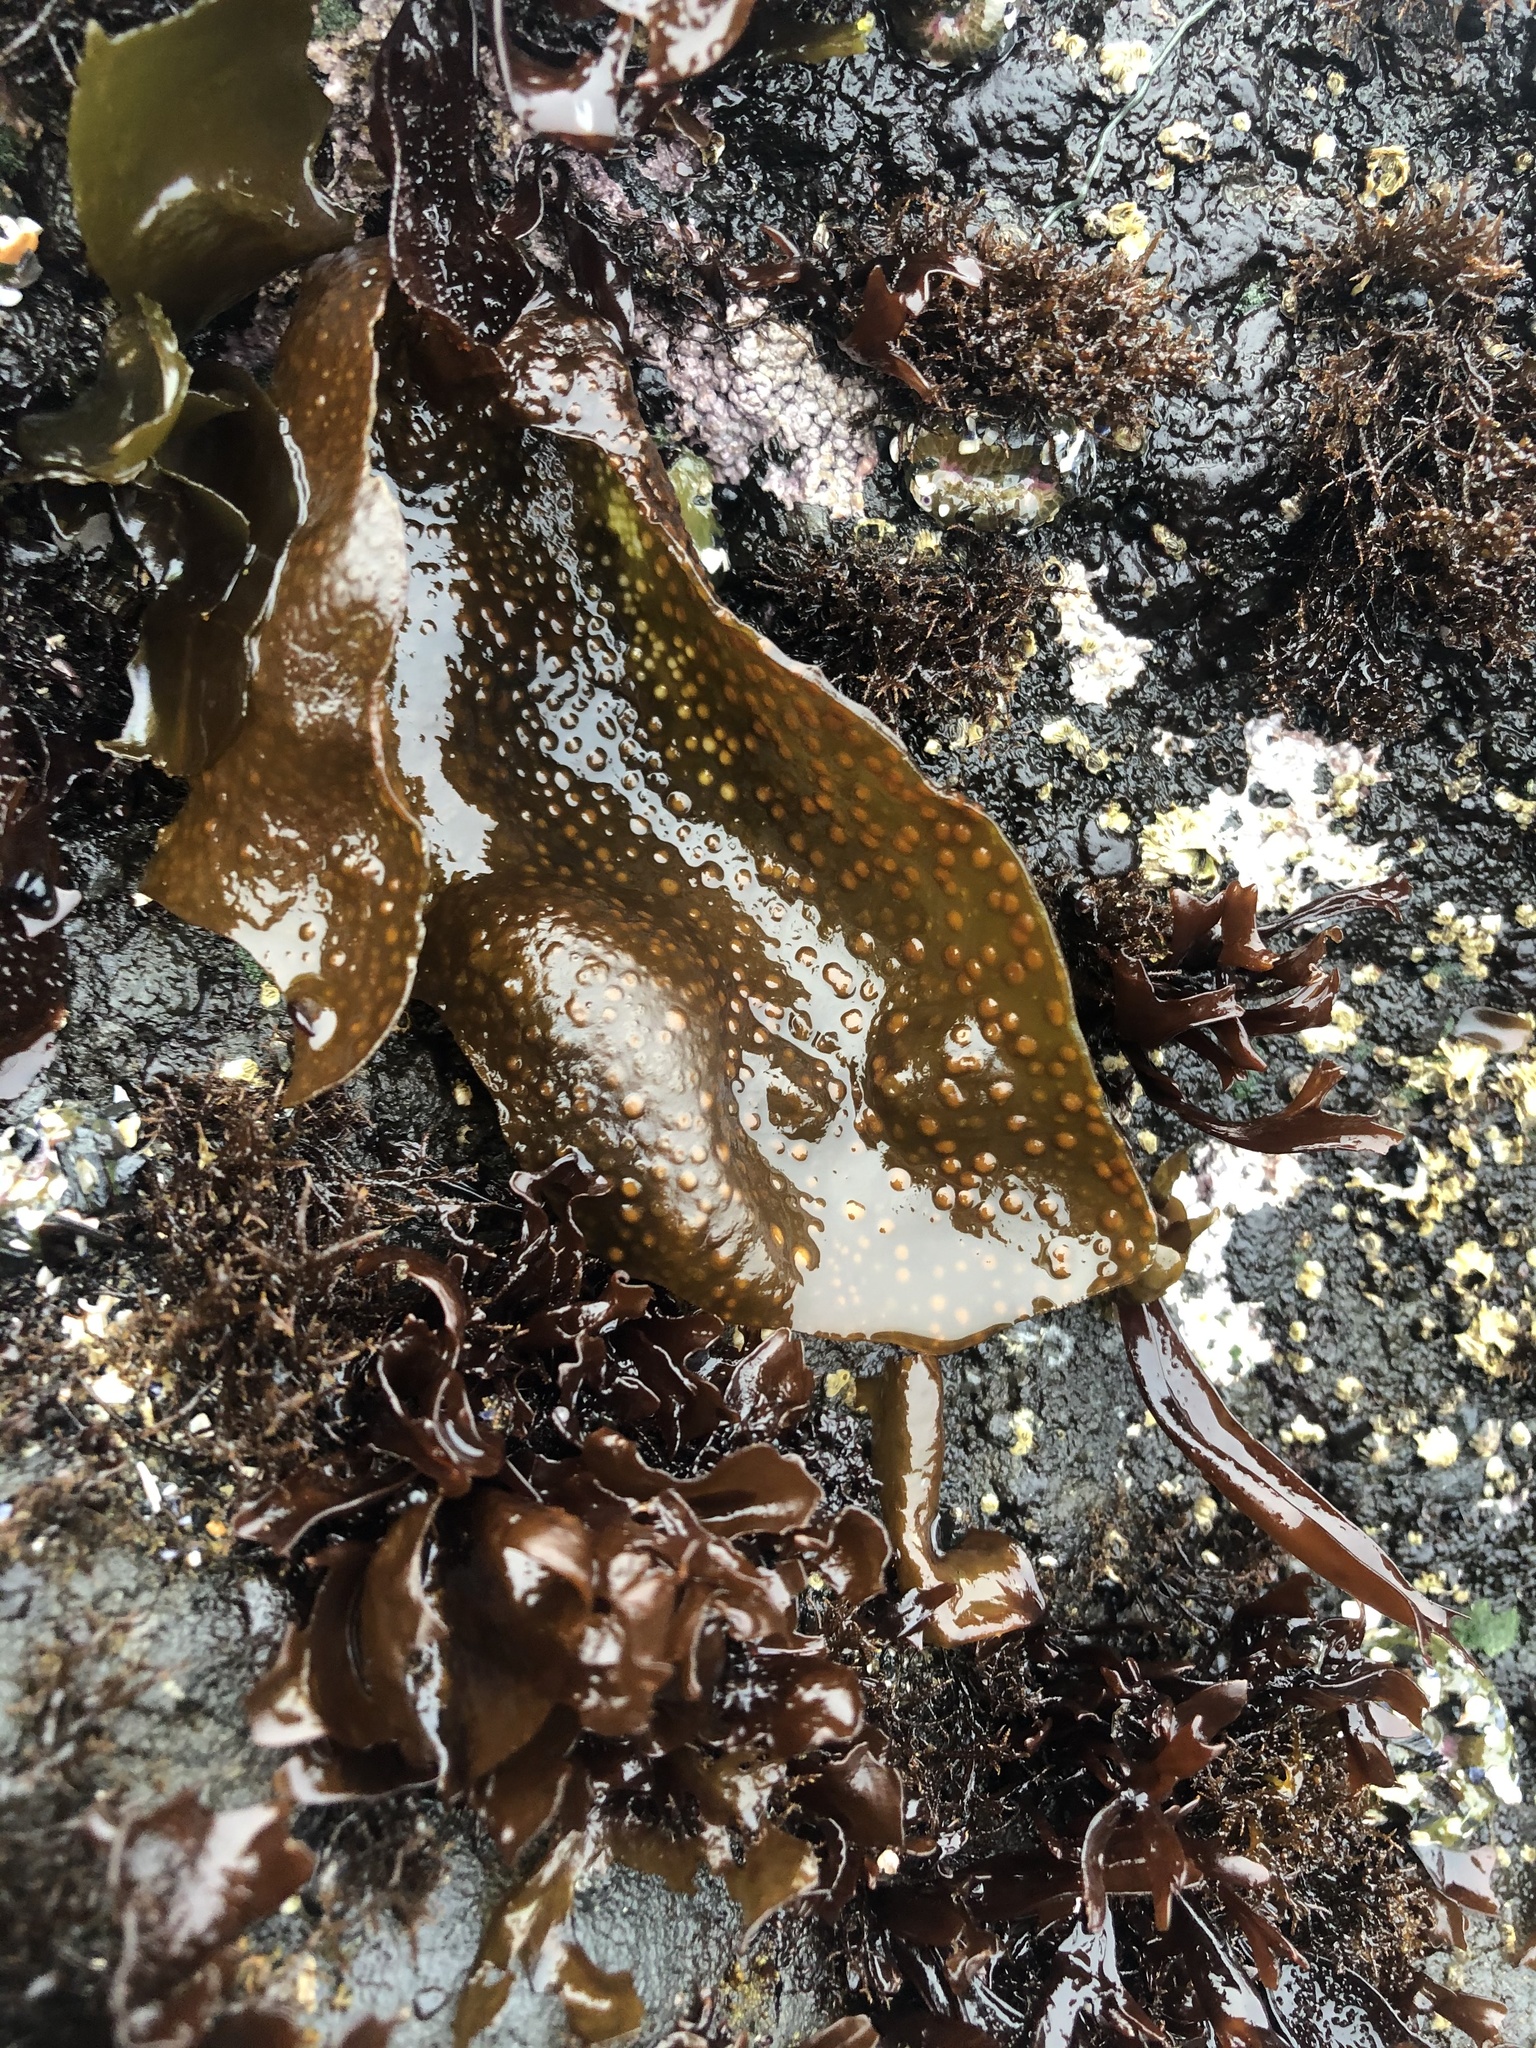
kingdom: Plantae
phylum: Rhodophyta
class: Florideophyceae
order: Gigartinales
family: Gigartinaceae
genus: Mazzaella
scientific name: Mazzaella oregona
